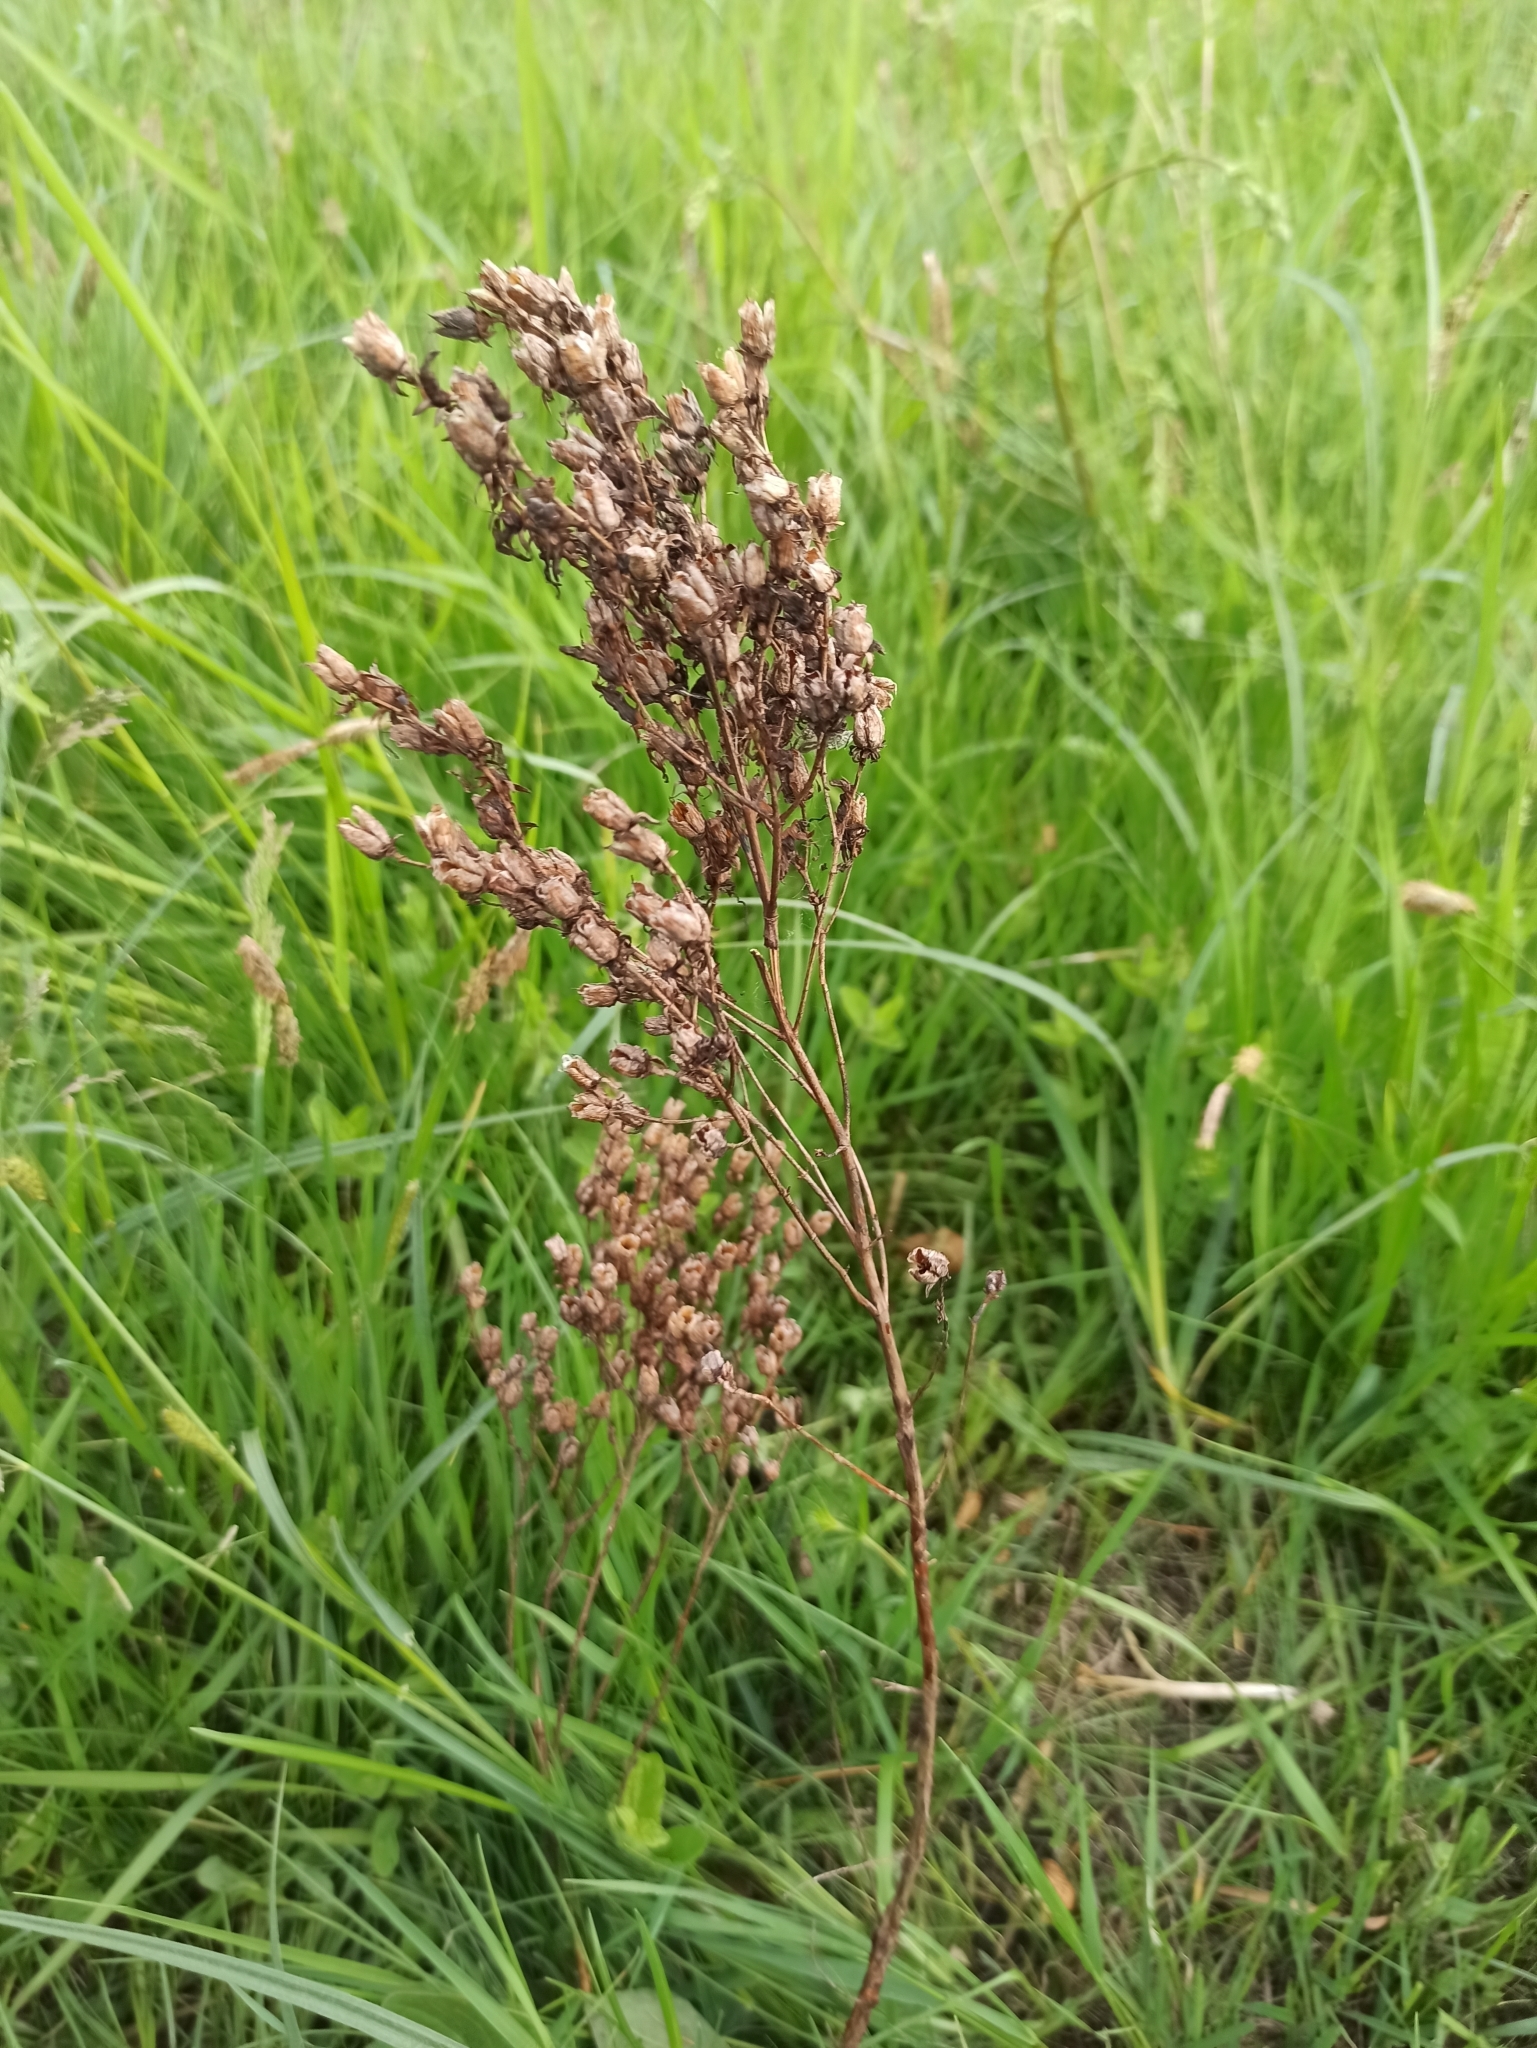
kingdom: Plantae
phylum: Tracheophyta
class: Magnoliopsida
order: Malpighiales
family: Hypericaceae
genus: Hypericum
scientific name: Hypericum perforatum
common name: Common st. johnswort
